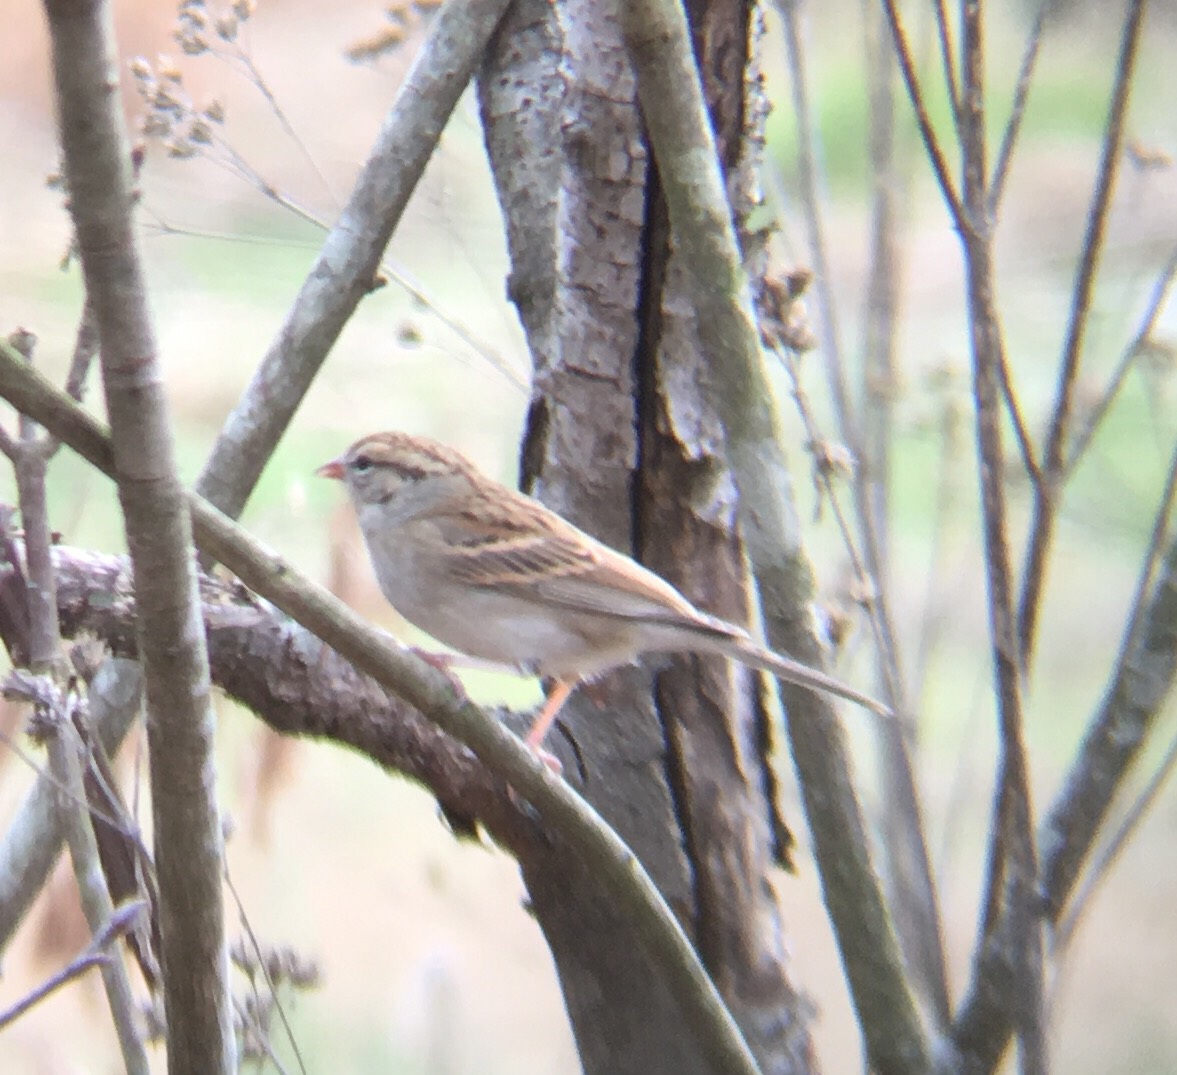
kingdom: Animalia
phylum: Chordata
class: Aves
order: Passeriformes
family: Passerellidae
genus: Spizella
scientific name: Spizella passerina
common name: Chipping sparrow
